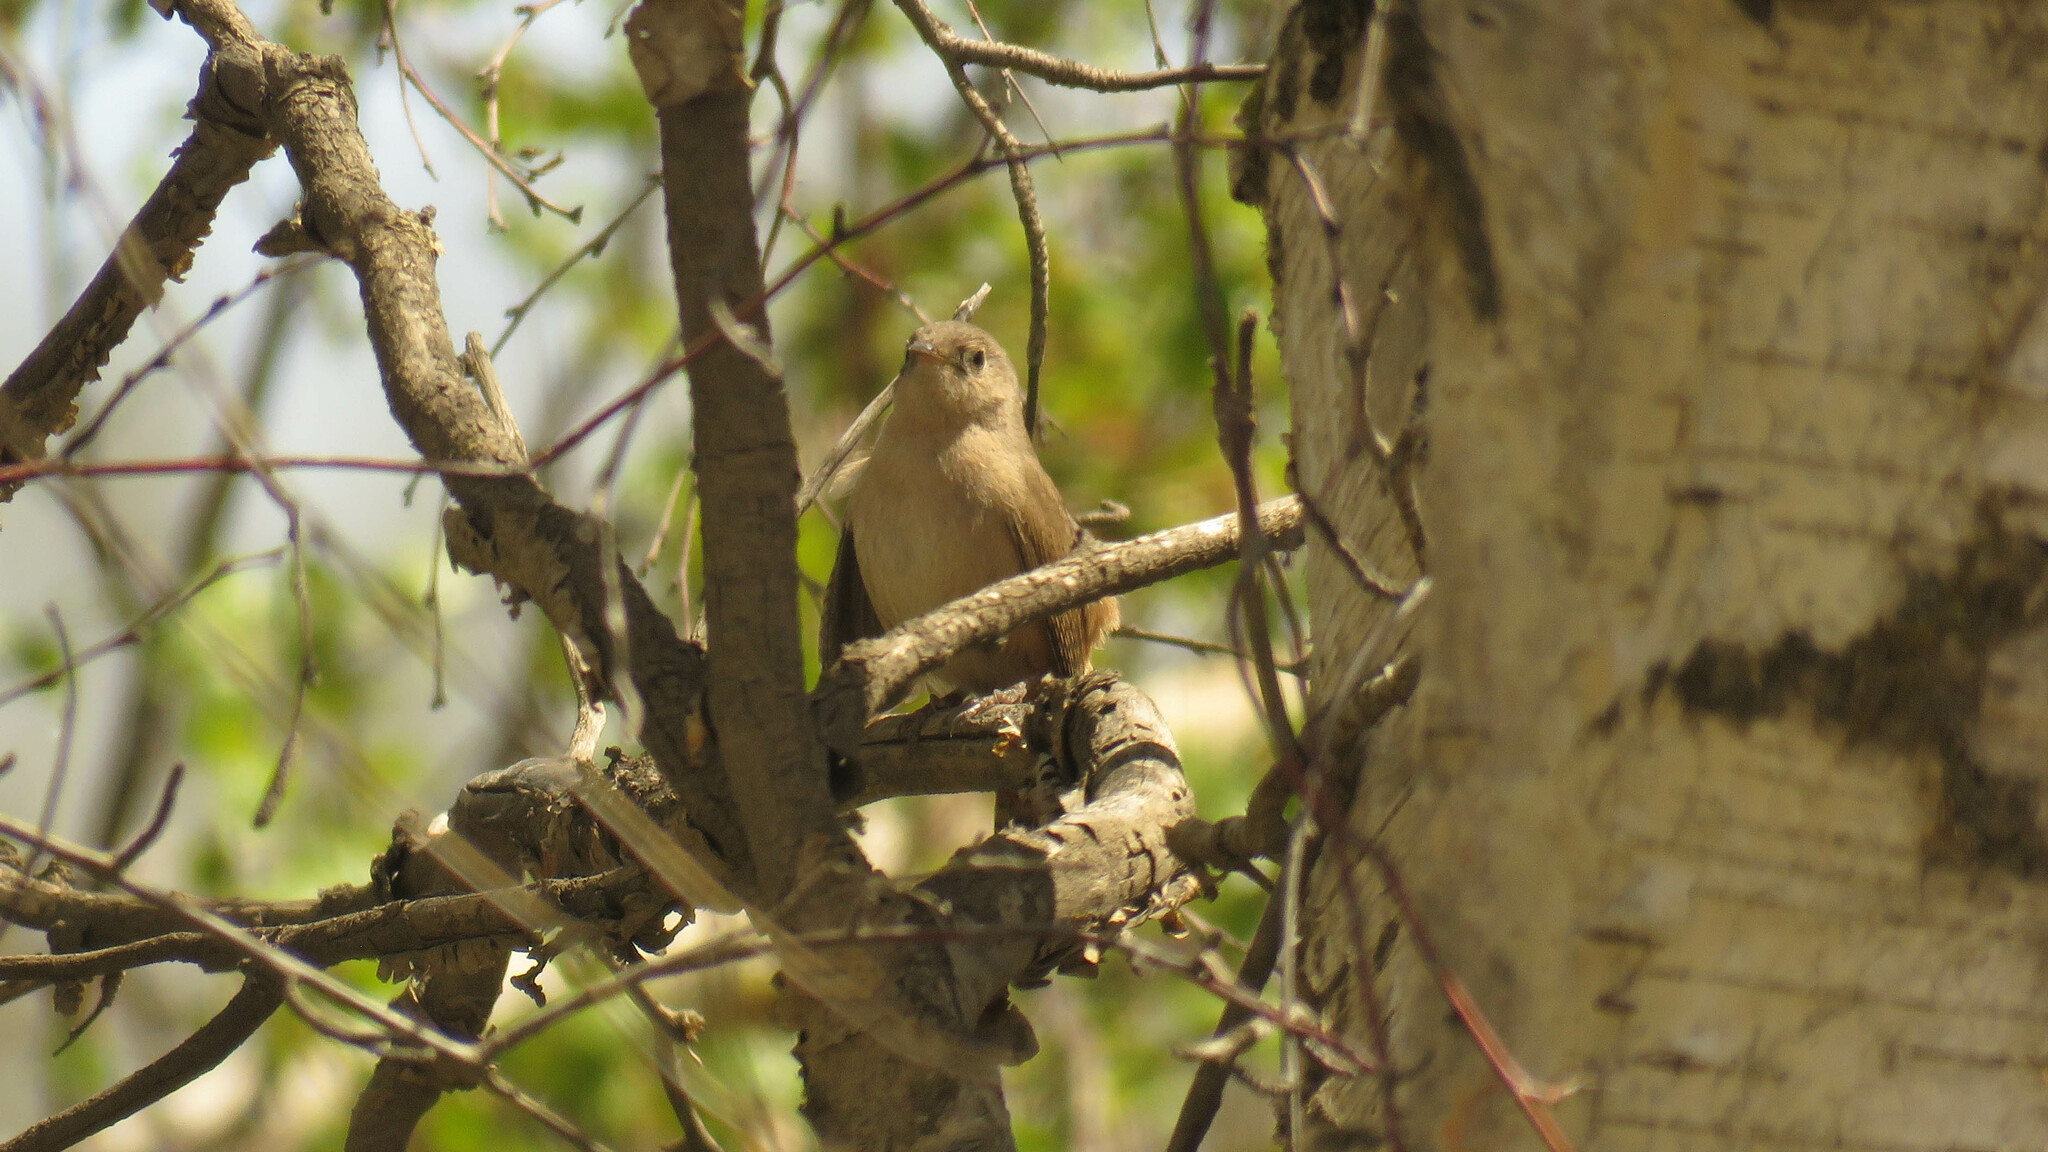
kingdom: Animalia
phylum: Chordata
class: Aves
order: Passeriformes
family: Troglodytidae
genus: Troglodytes
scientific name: Troglodytes aedon
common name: House wren
